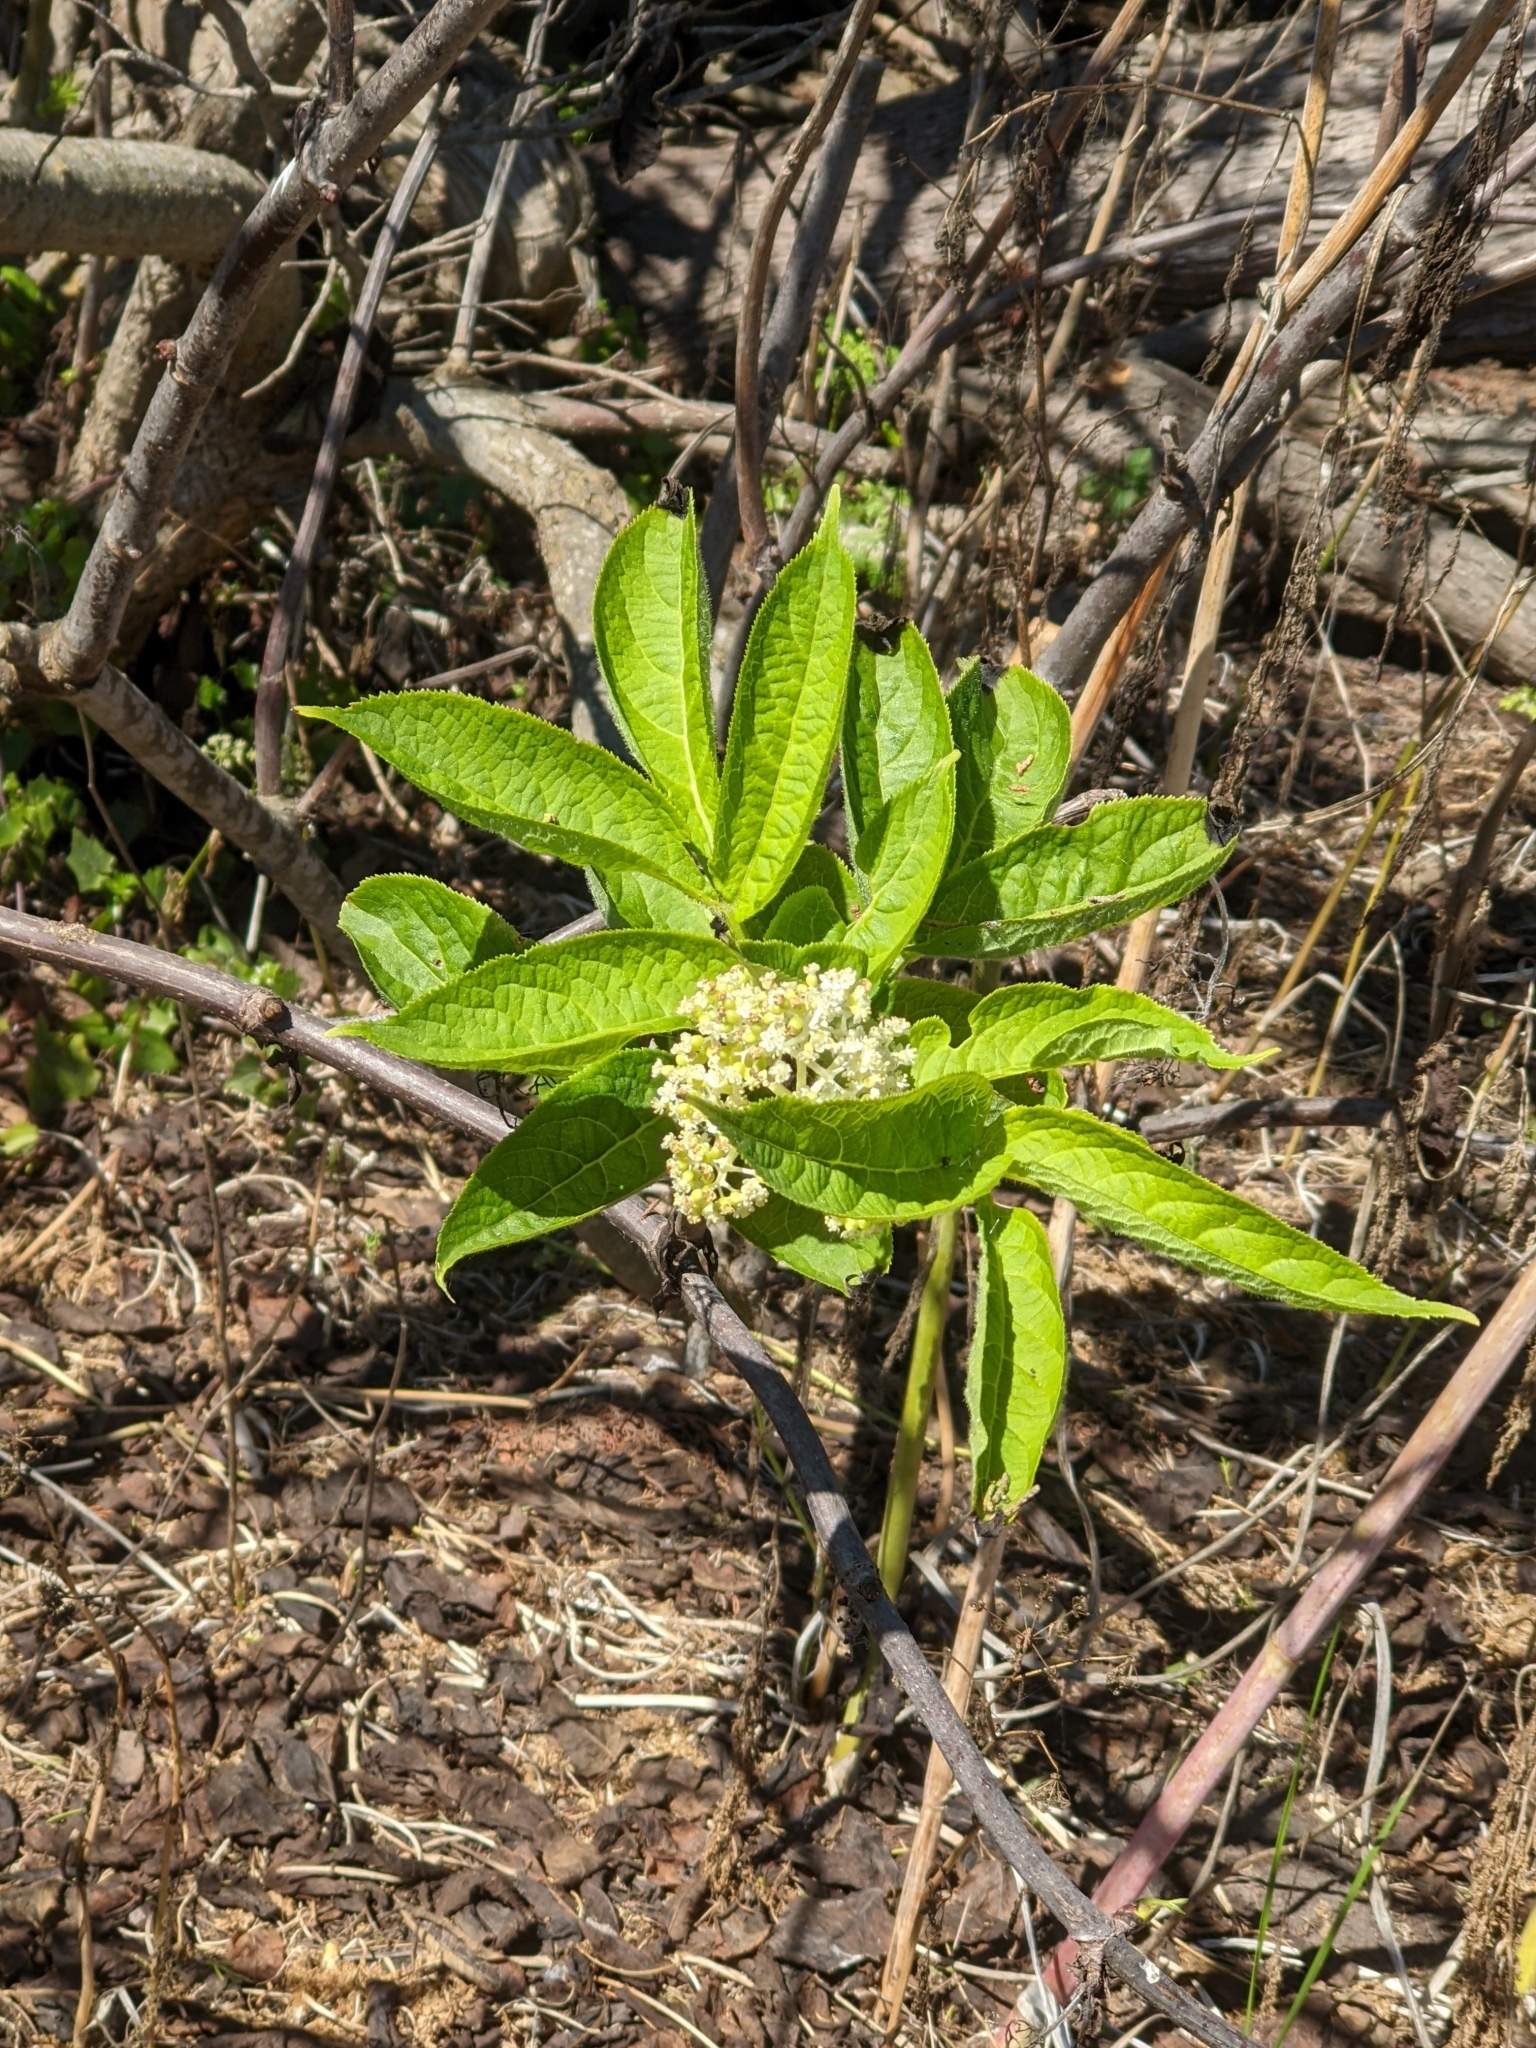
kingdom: Plantae
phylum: Tracheophyta
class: Magnoliopsida
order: Dipsacales
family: Viburnaceae
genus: Sambucus
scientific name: Sambucus racemosa
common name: Red-berried elder
